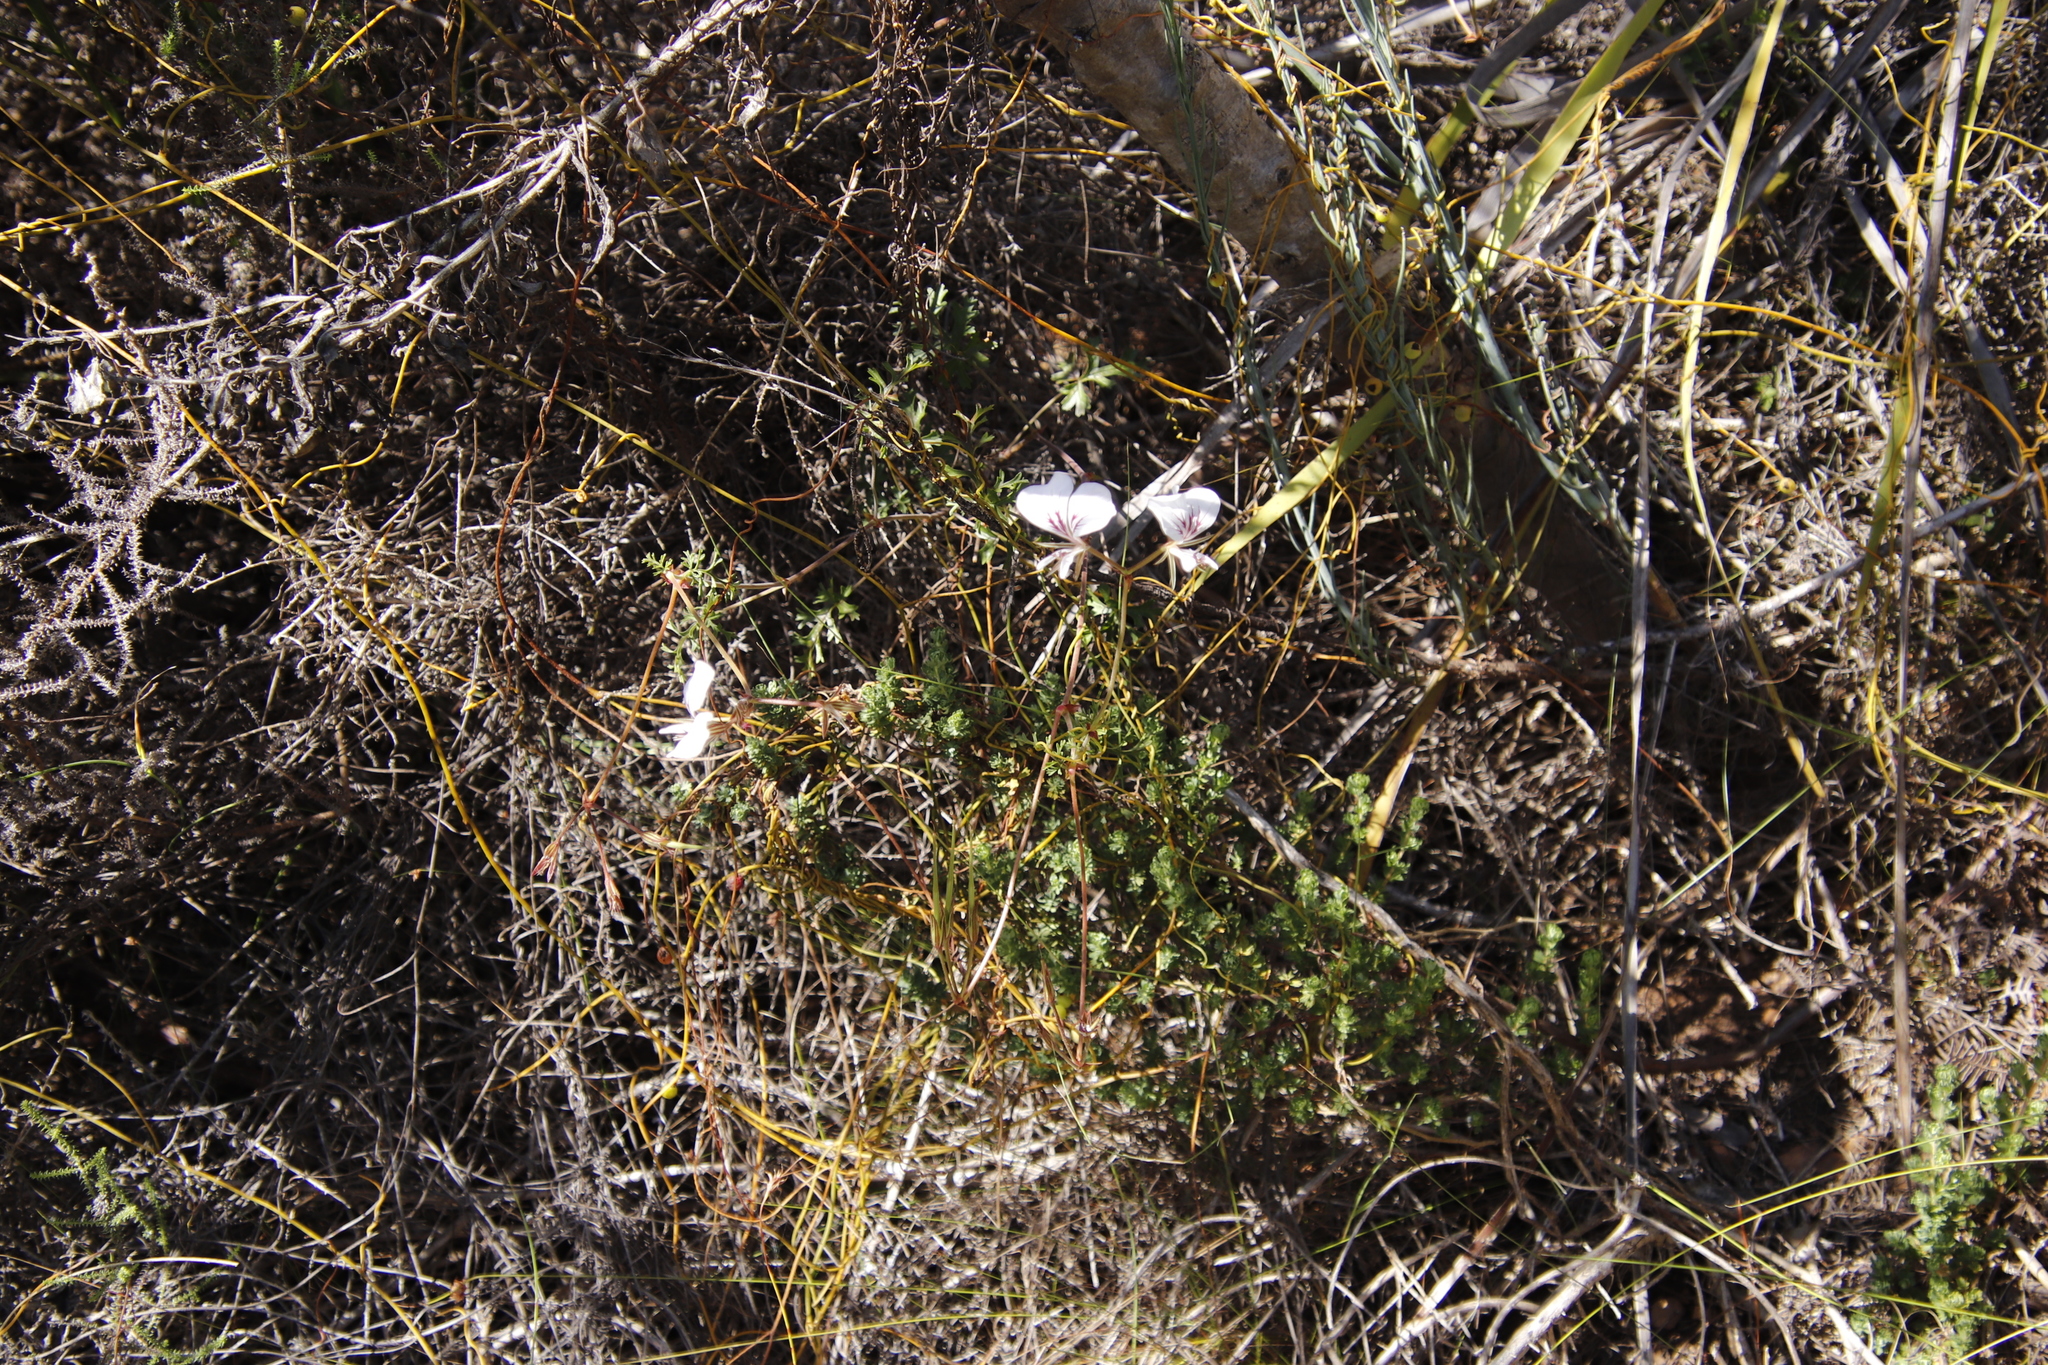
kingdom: Plantae
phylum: Tracheophyta
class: Magnoliopsida
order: Geraniales
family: Geraniaceae
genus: Pelargonium
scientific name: Pelargonium longicaule
